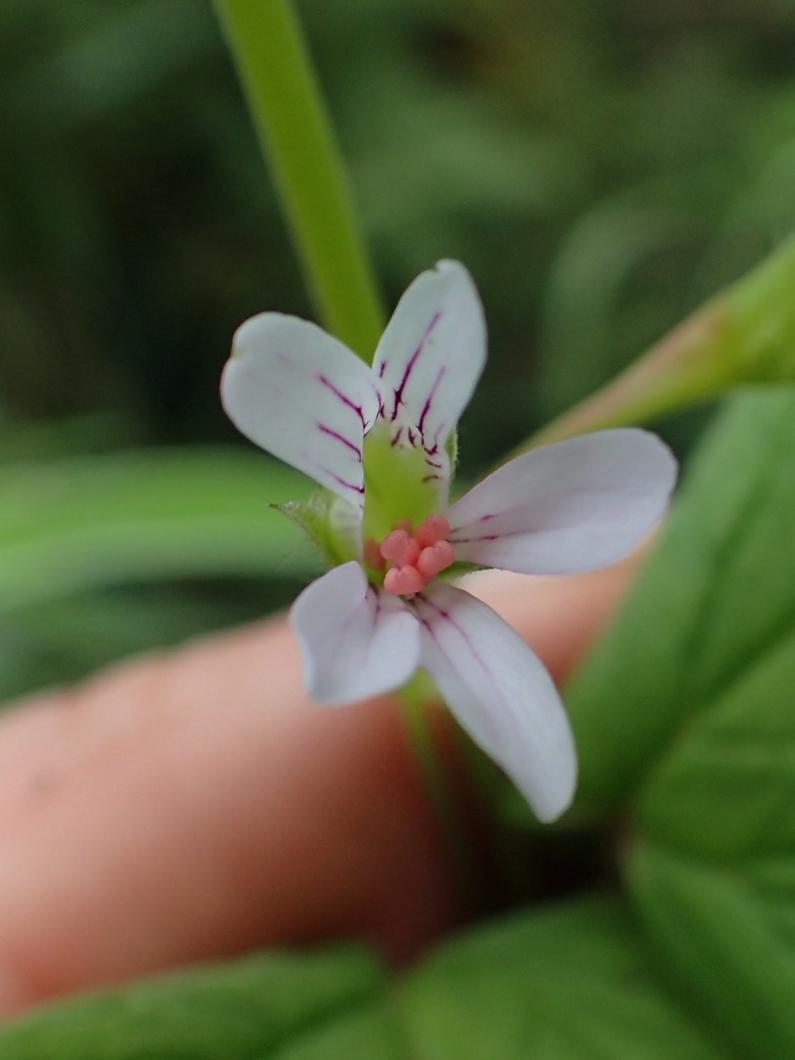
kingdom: Plantae
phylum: Tracheophyta
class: Magnoliopsida
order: Geraniales
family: Geraniaceae
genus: Pelargonium
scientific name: Pelargonium dispar
